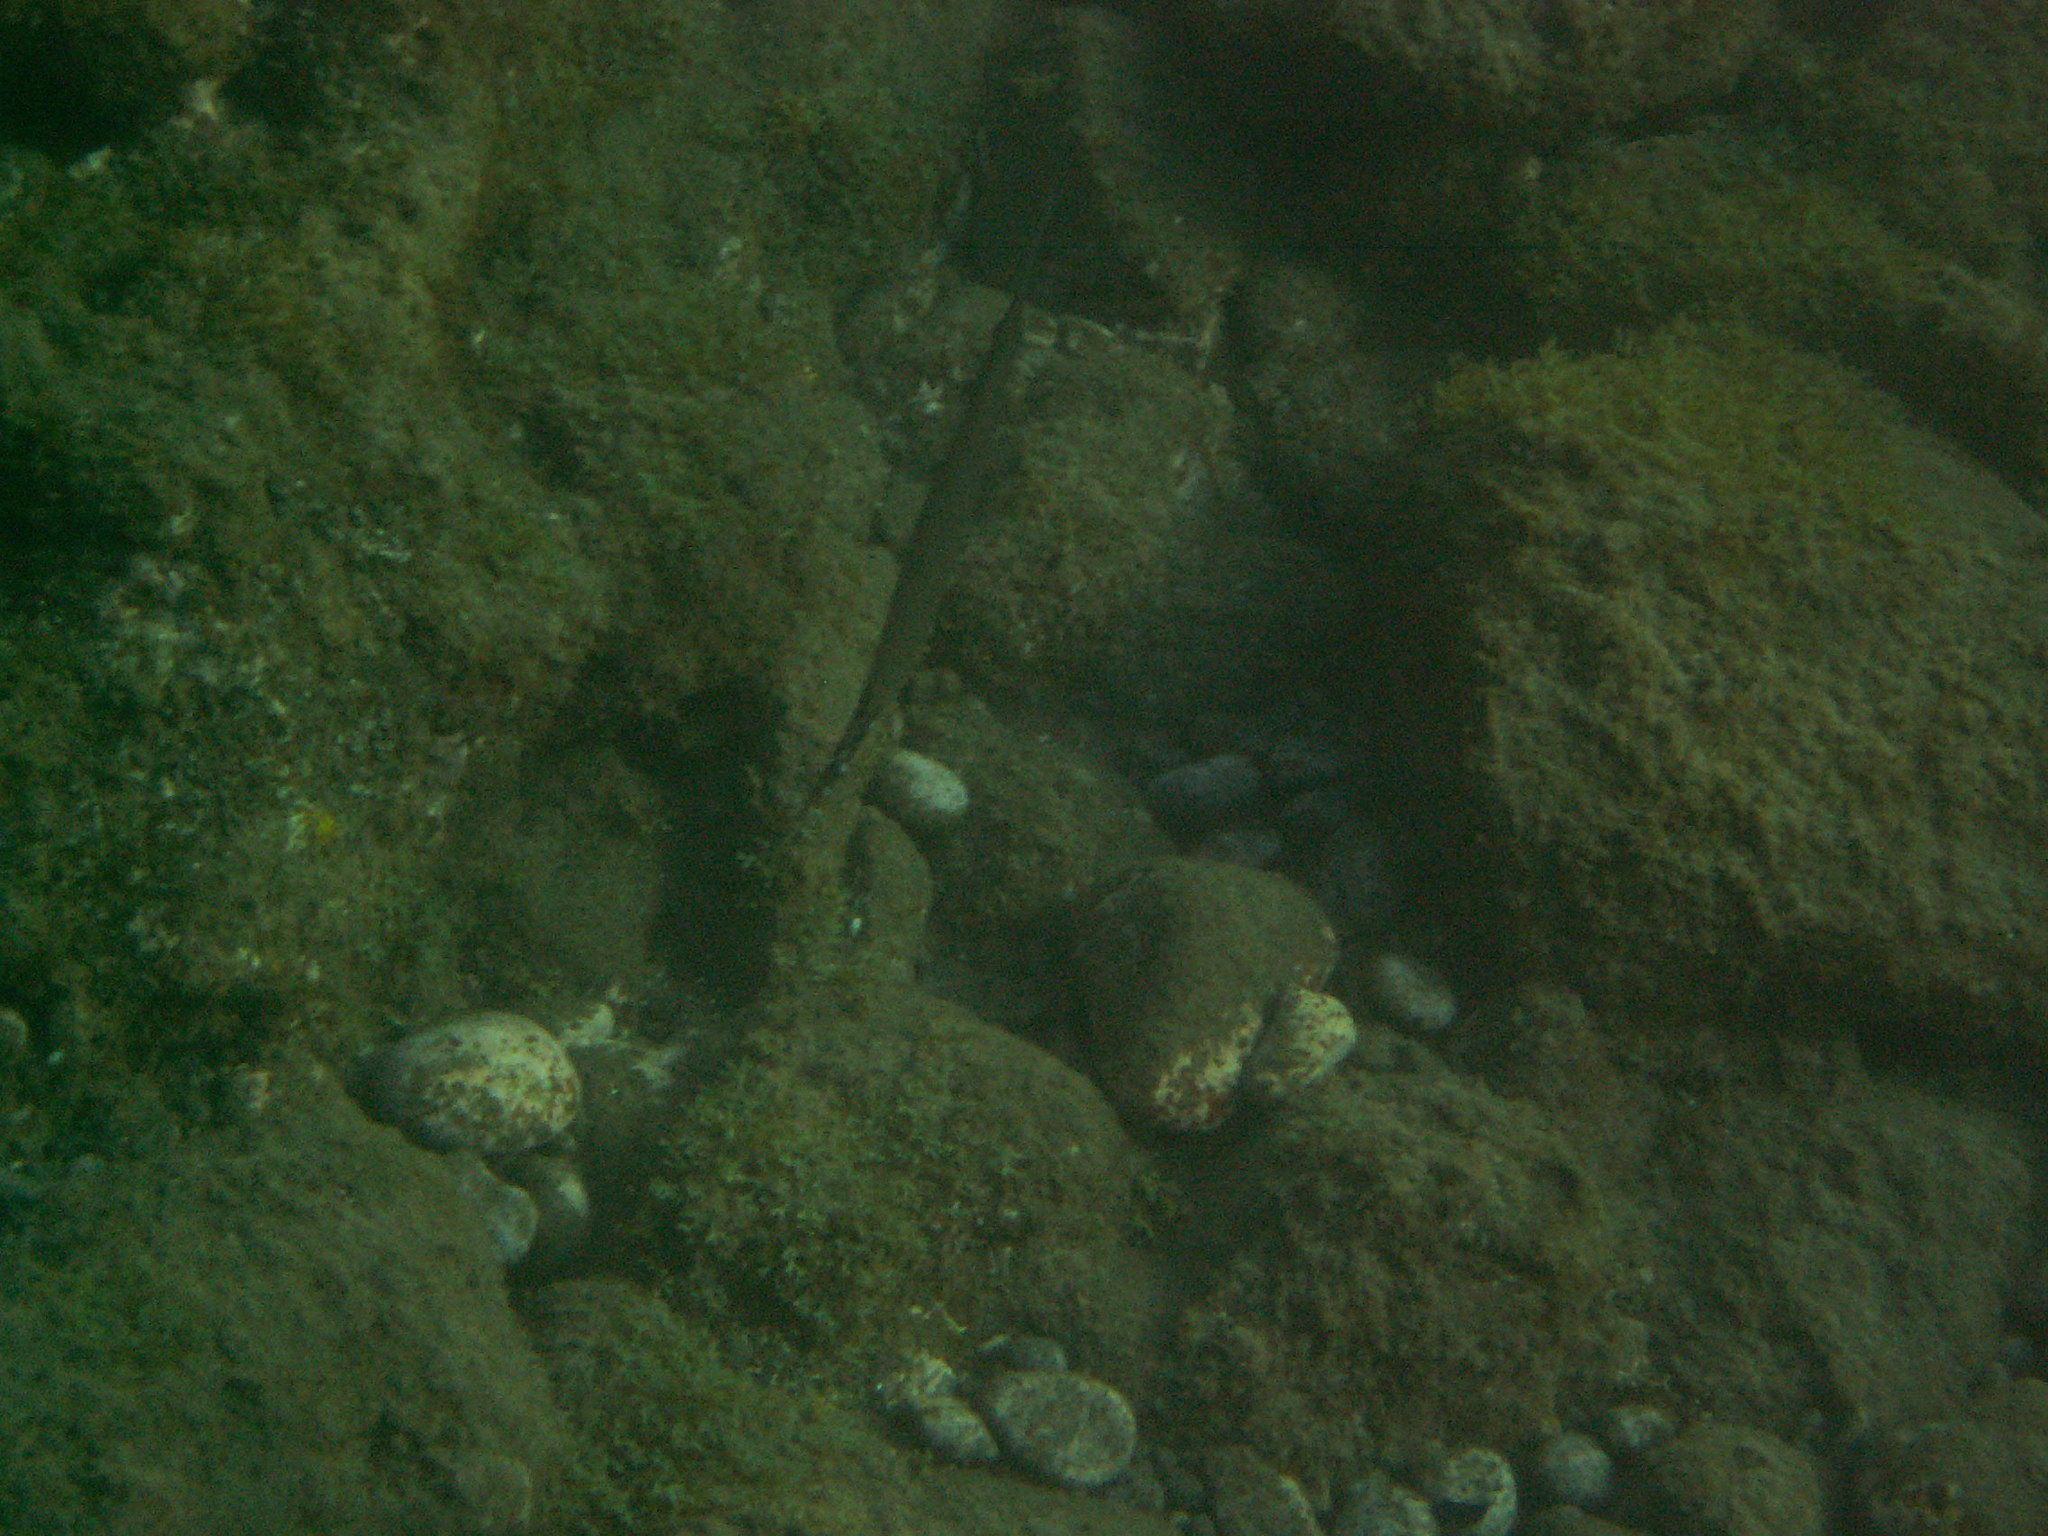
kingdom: Animalia
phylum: Chordata
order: Syngnathiformes
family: Aulostomidae
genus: Aulostomus
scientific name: Aulostomus strigosus
